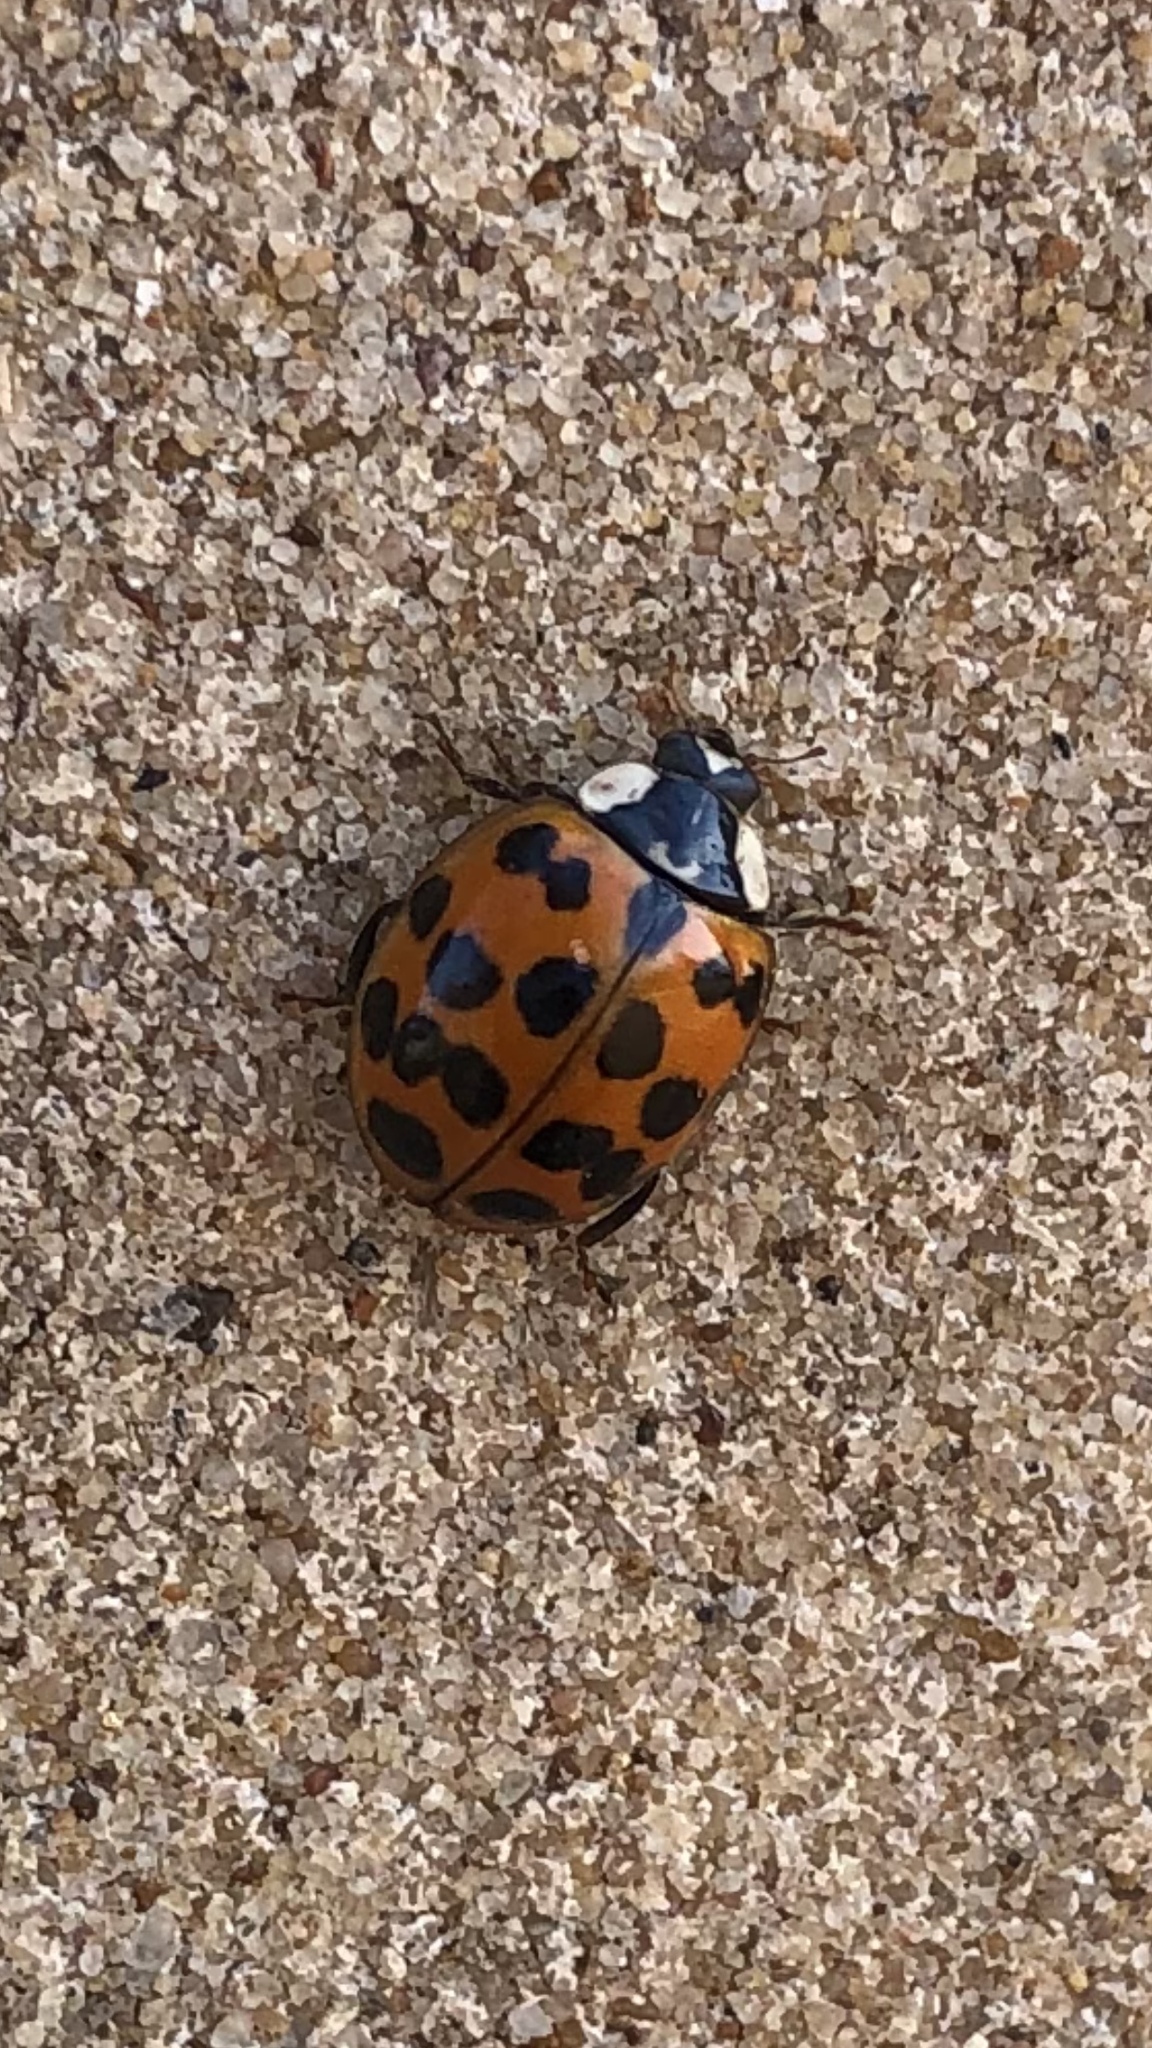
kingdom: Animalia
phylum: Arthropoda
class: Insecta
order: Coleoptera
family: Coccinellidae
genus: Harmonia
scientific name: Harmonia axyridis
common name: Harlequin ladybird
